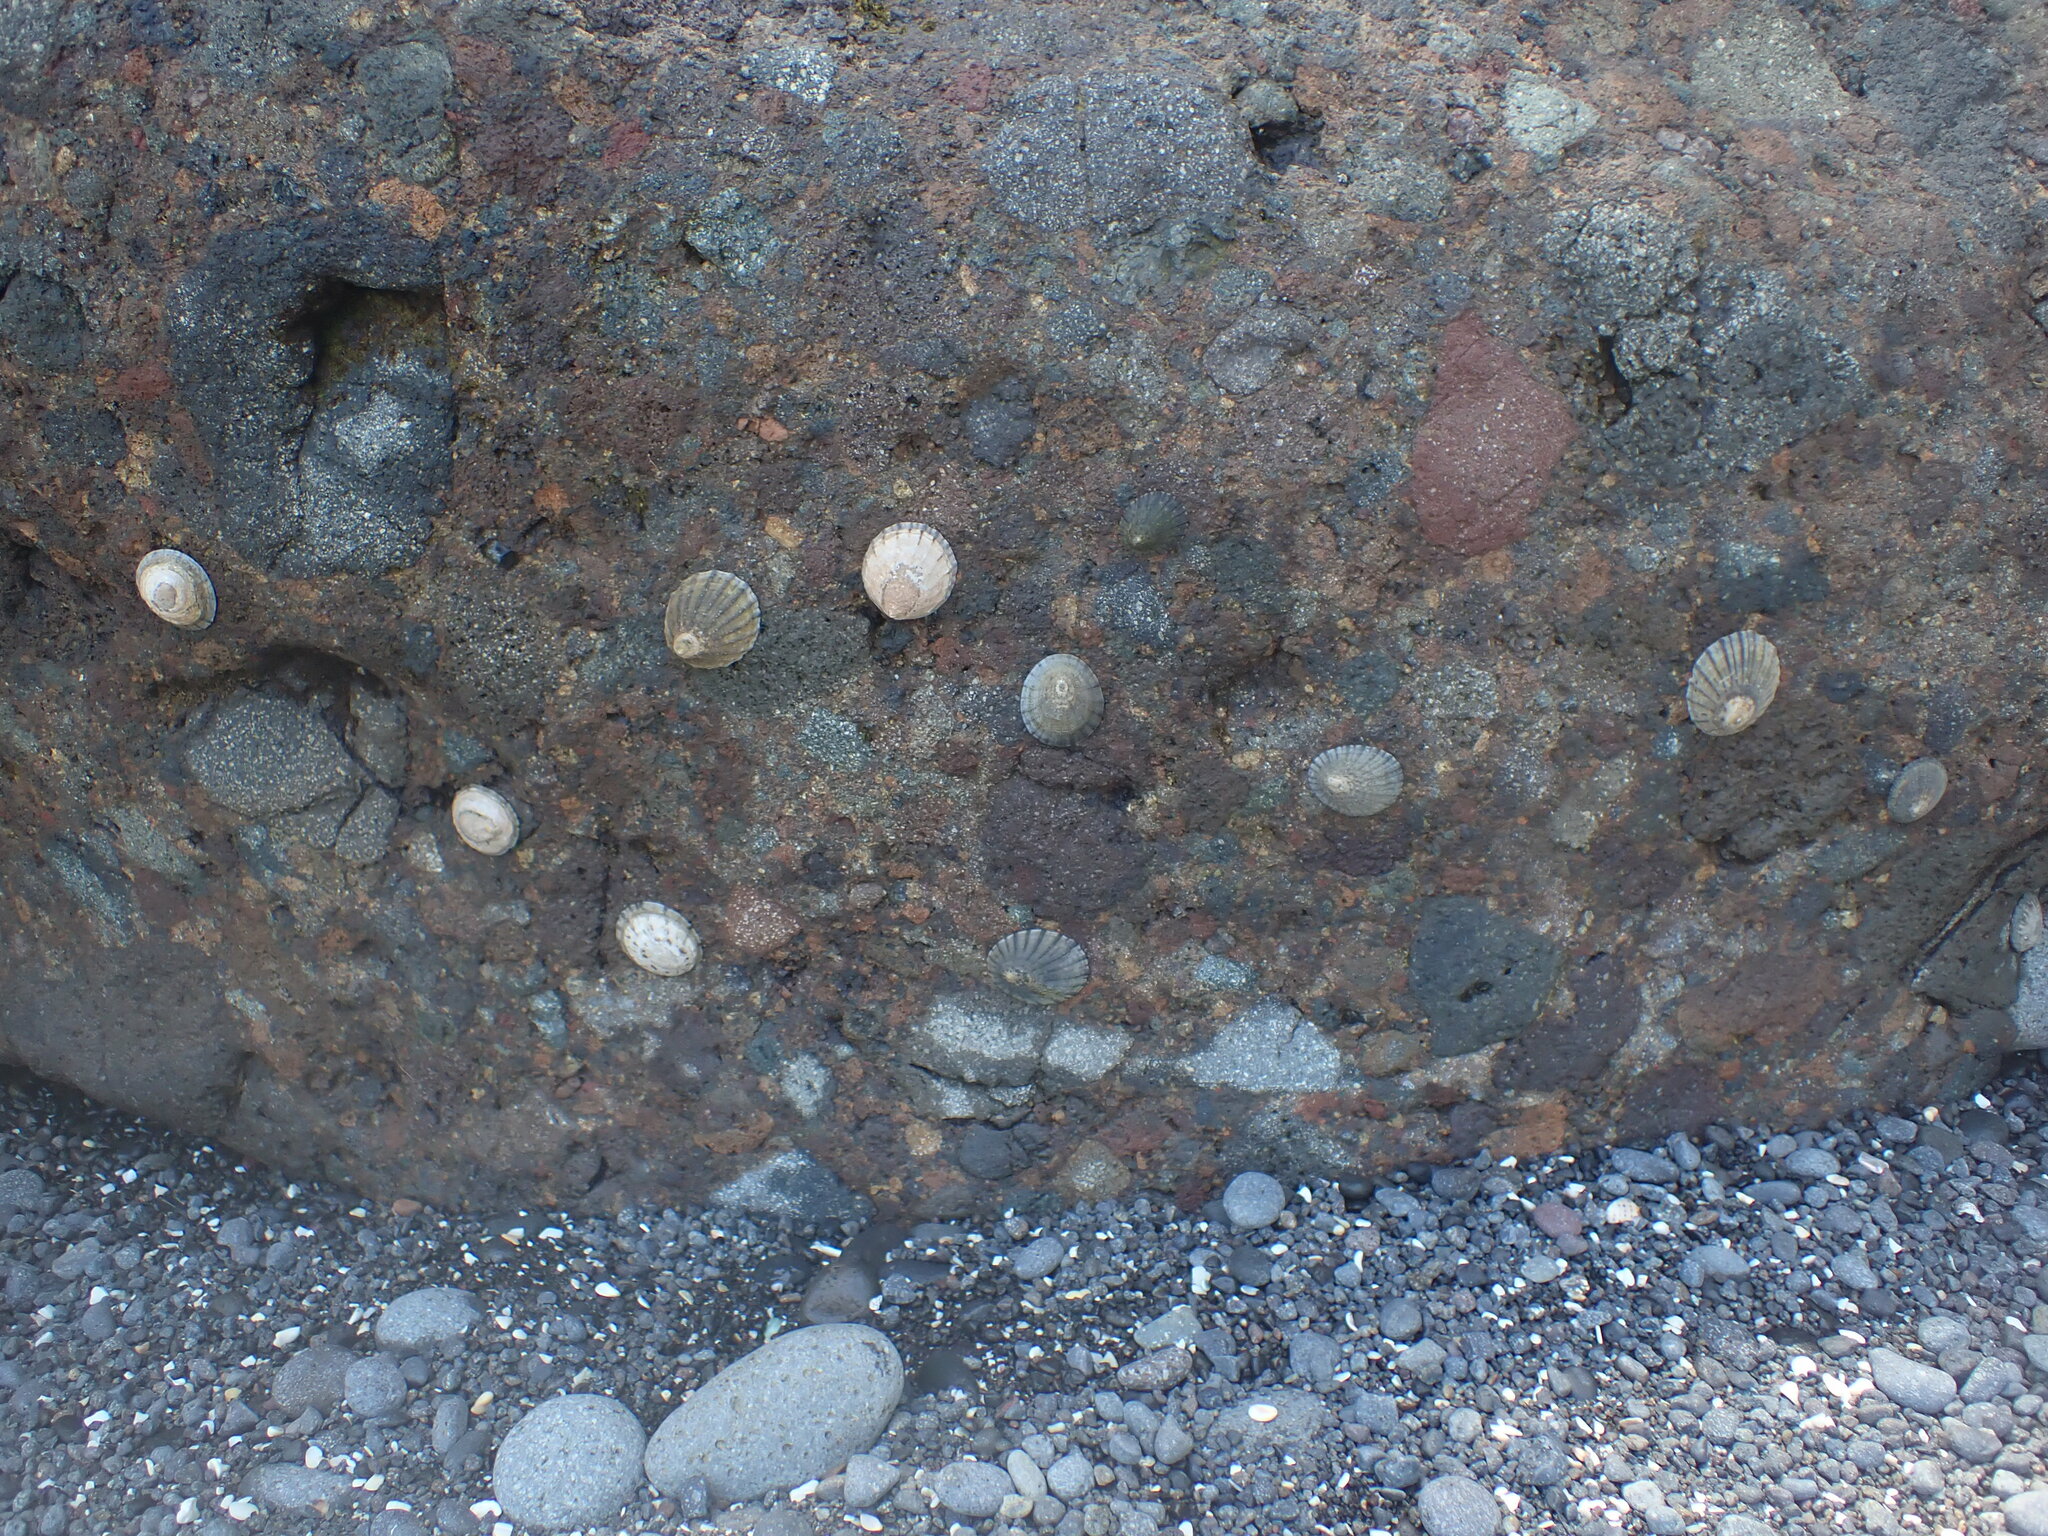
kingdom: Animalia
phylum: Mollusca
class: Gastropoda
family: Nacellidae
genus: Cellana
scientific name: Cellana radians
